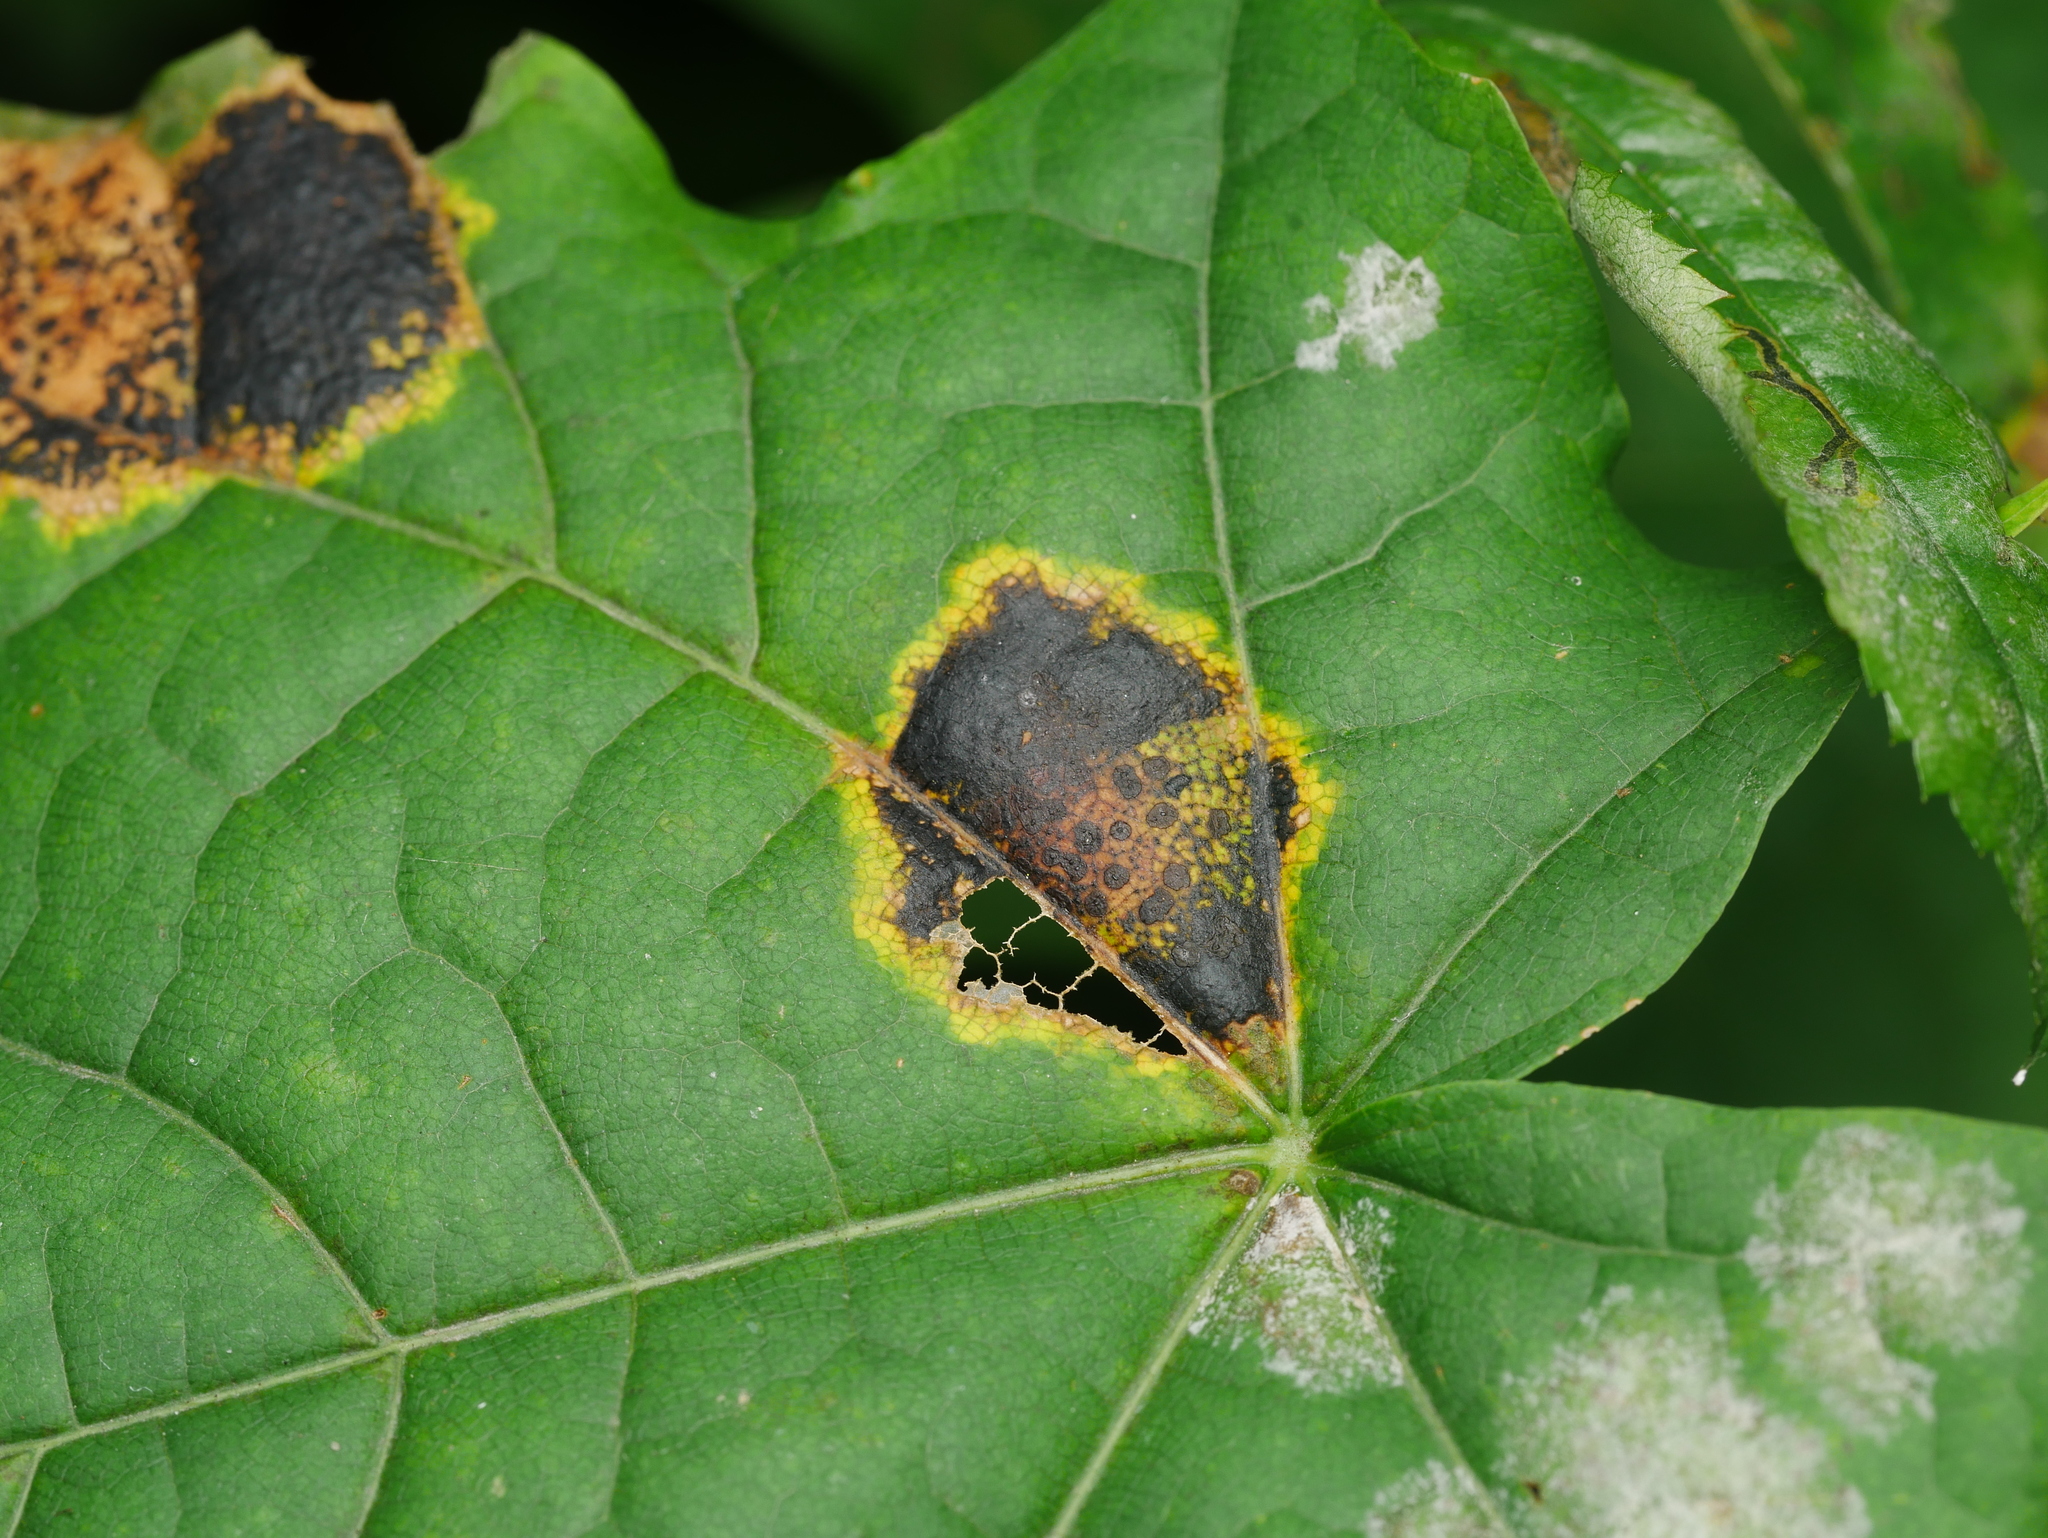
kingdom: Fungi
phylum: Ascomycota
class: Leotiomycetes
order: Rhytismatales
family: Rhytismataceae
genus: Rhytisma
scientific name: Rhytisma acerinum
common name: European tar spot
